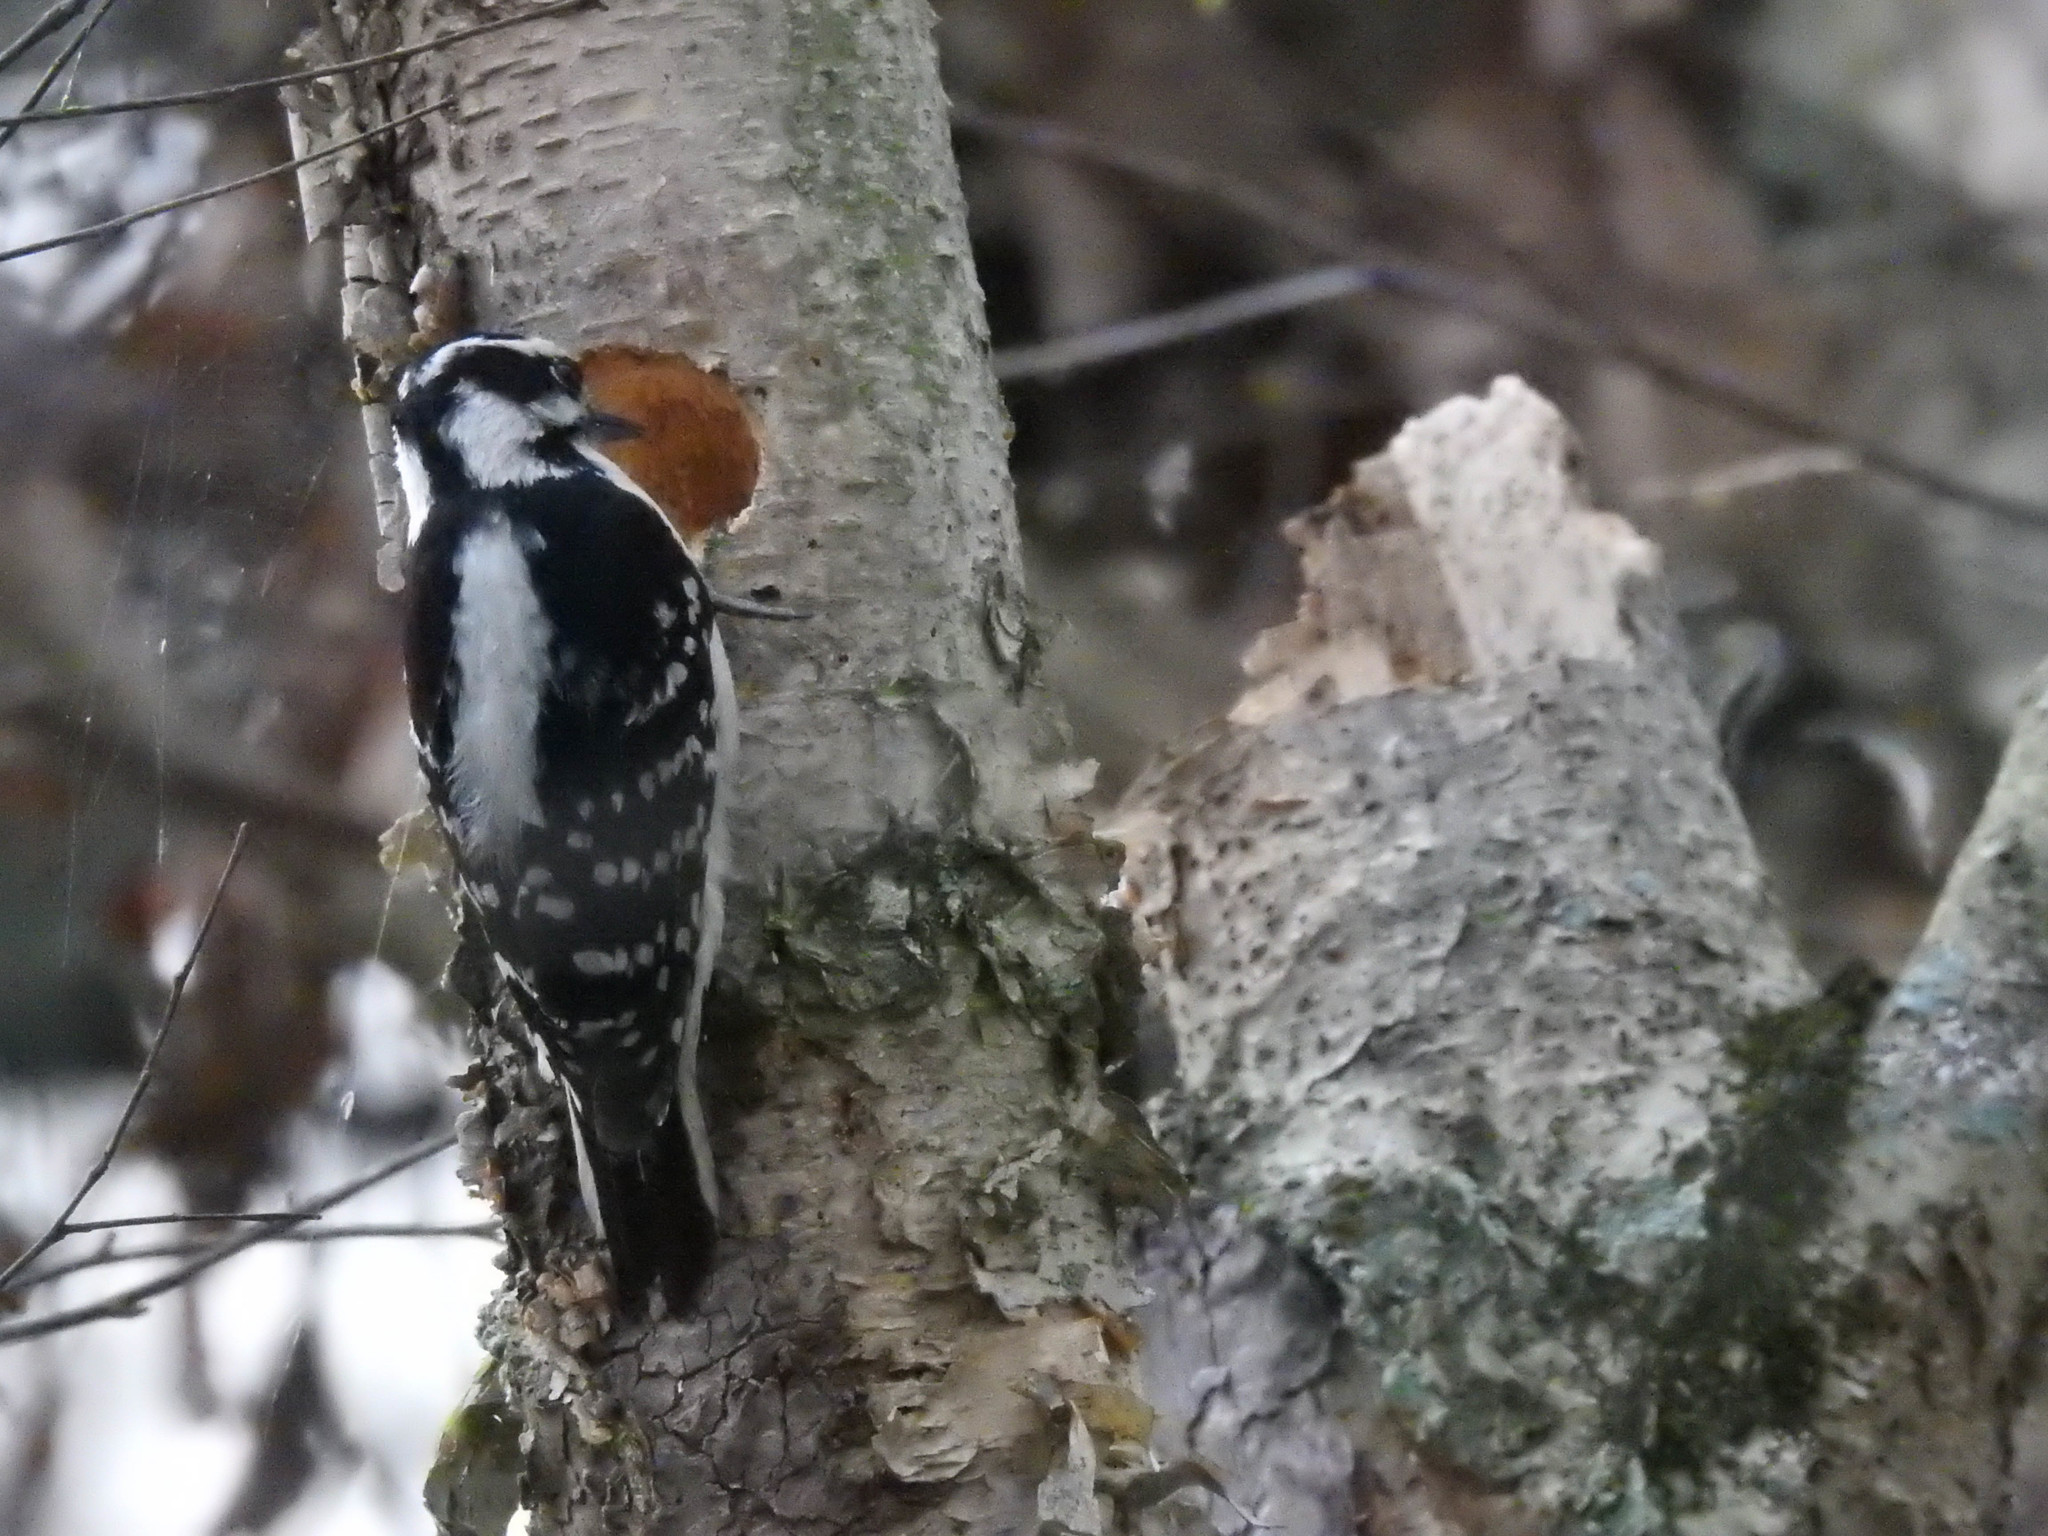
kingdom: Animalia
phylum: Chordata
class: Aves
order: Piciformes
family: Picidae
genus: Dryobates
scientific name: Dryobates pubescens
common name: Downy woodpecker
